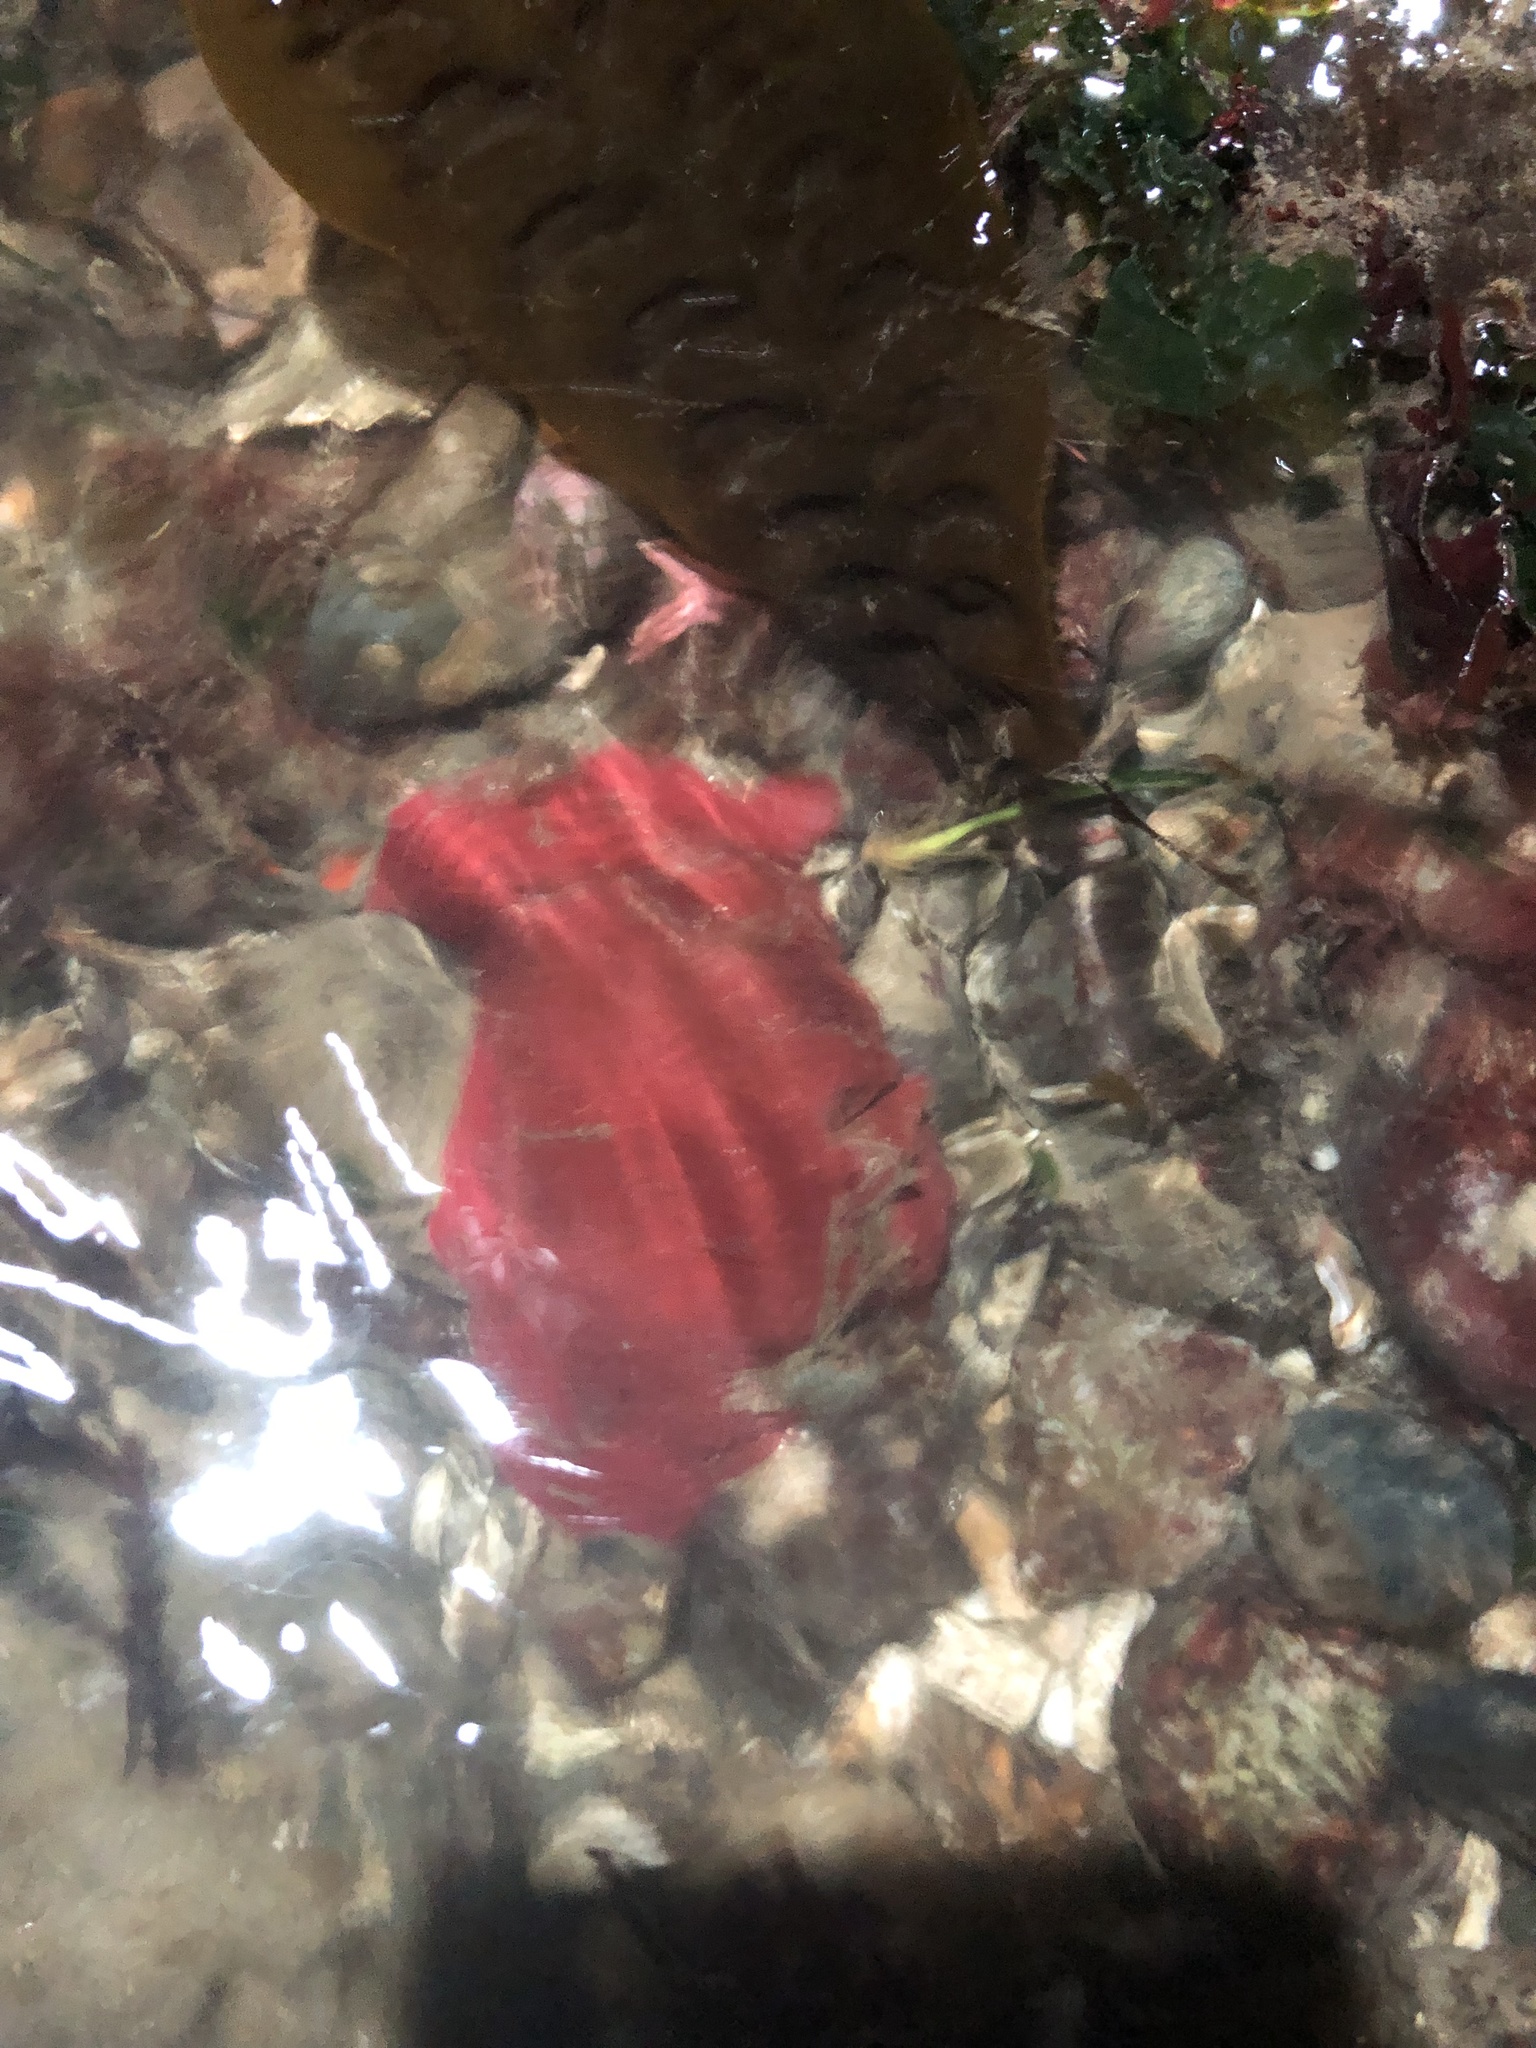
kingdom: Animalia
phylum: Cnidaria
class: Anthozoa
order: Actiniaria
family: Actiniidae
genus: Urticina
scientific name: Urticina grebelnyi
